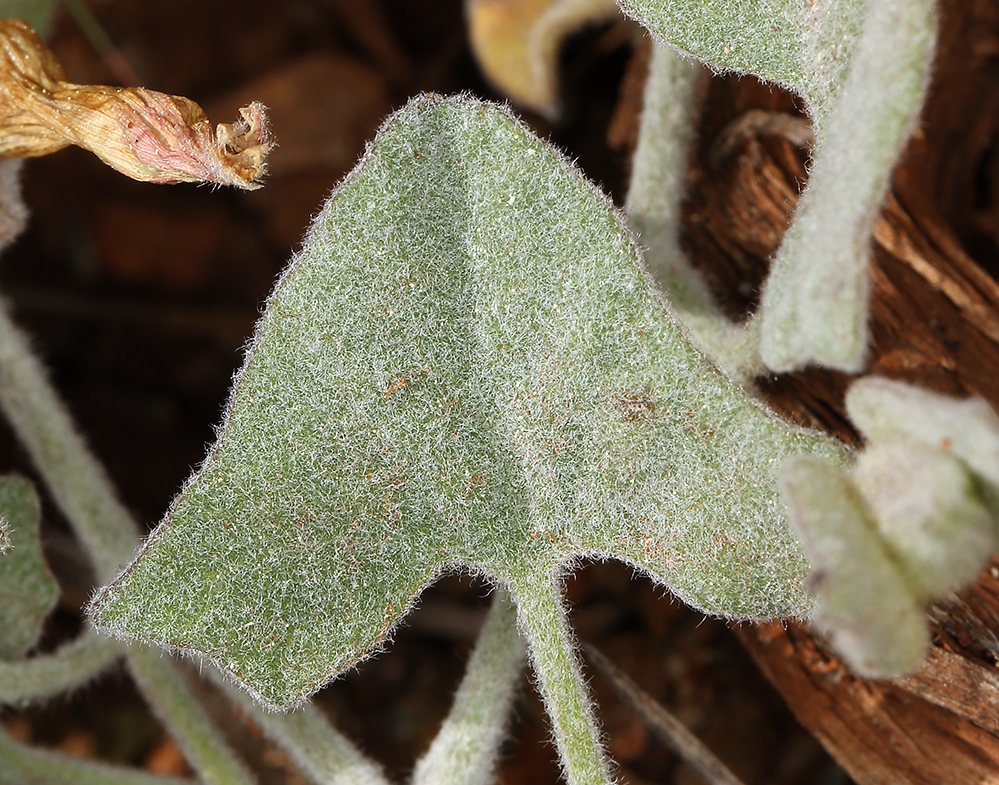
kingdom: Plantae
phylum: Tracheophyta
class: Magnoliopsida
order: Solanales
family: Convolvulaceae
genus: Calystegia
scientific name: Calystegia malacophylla
